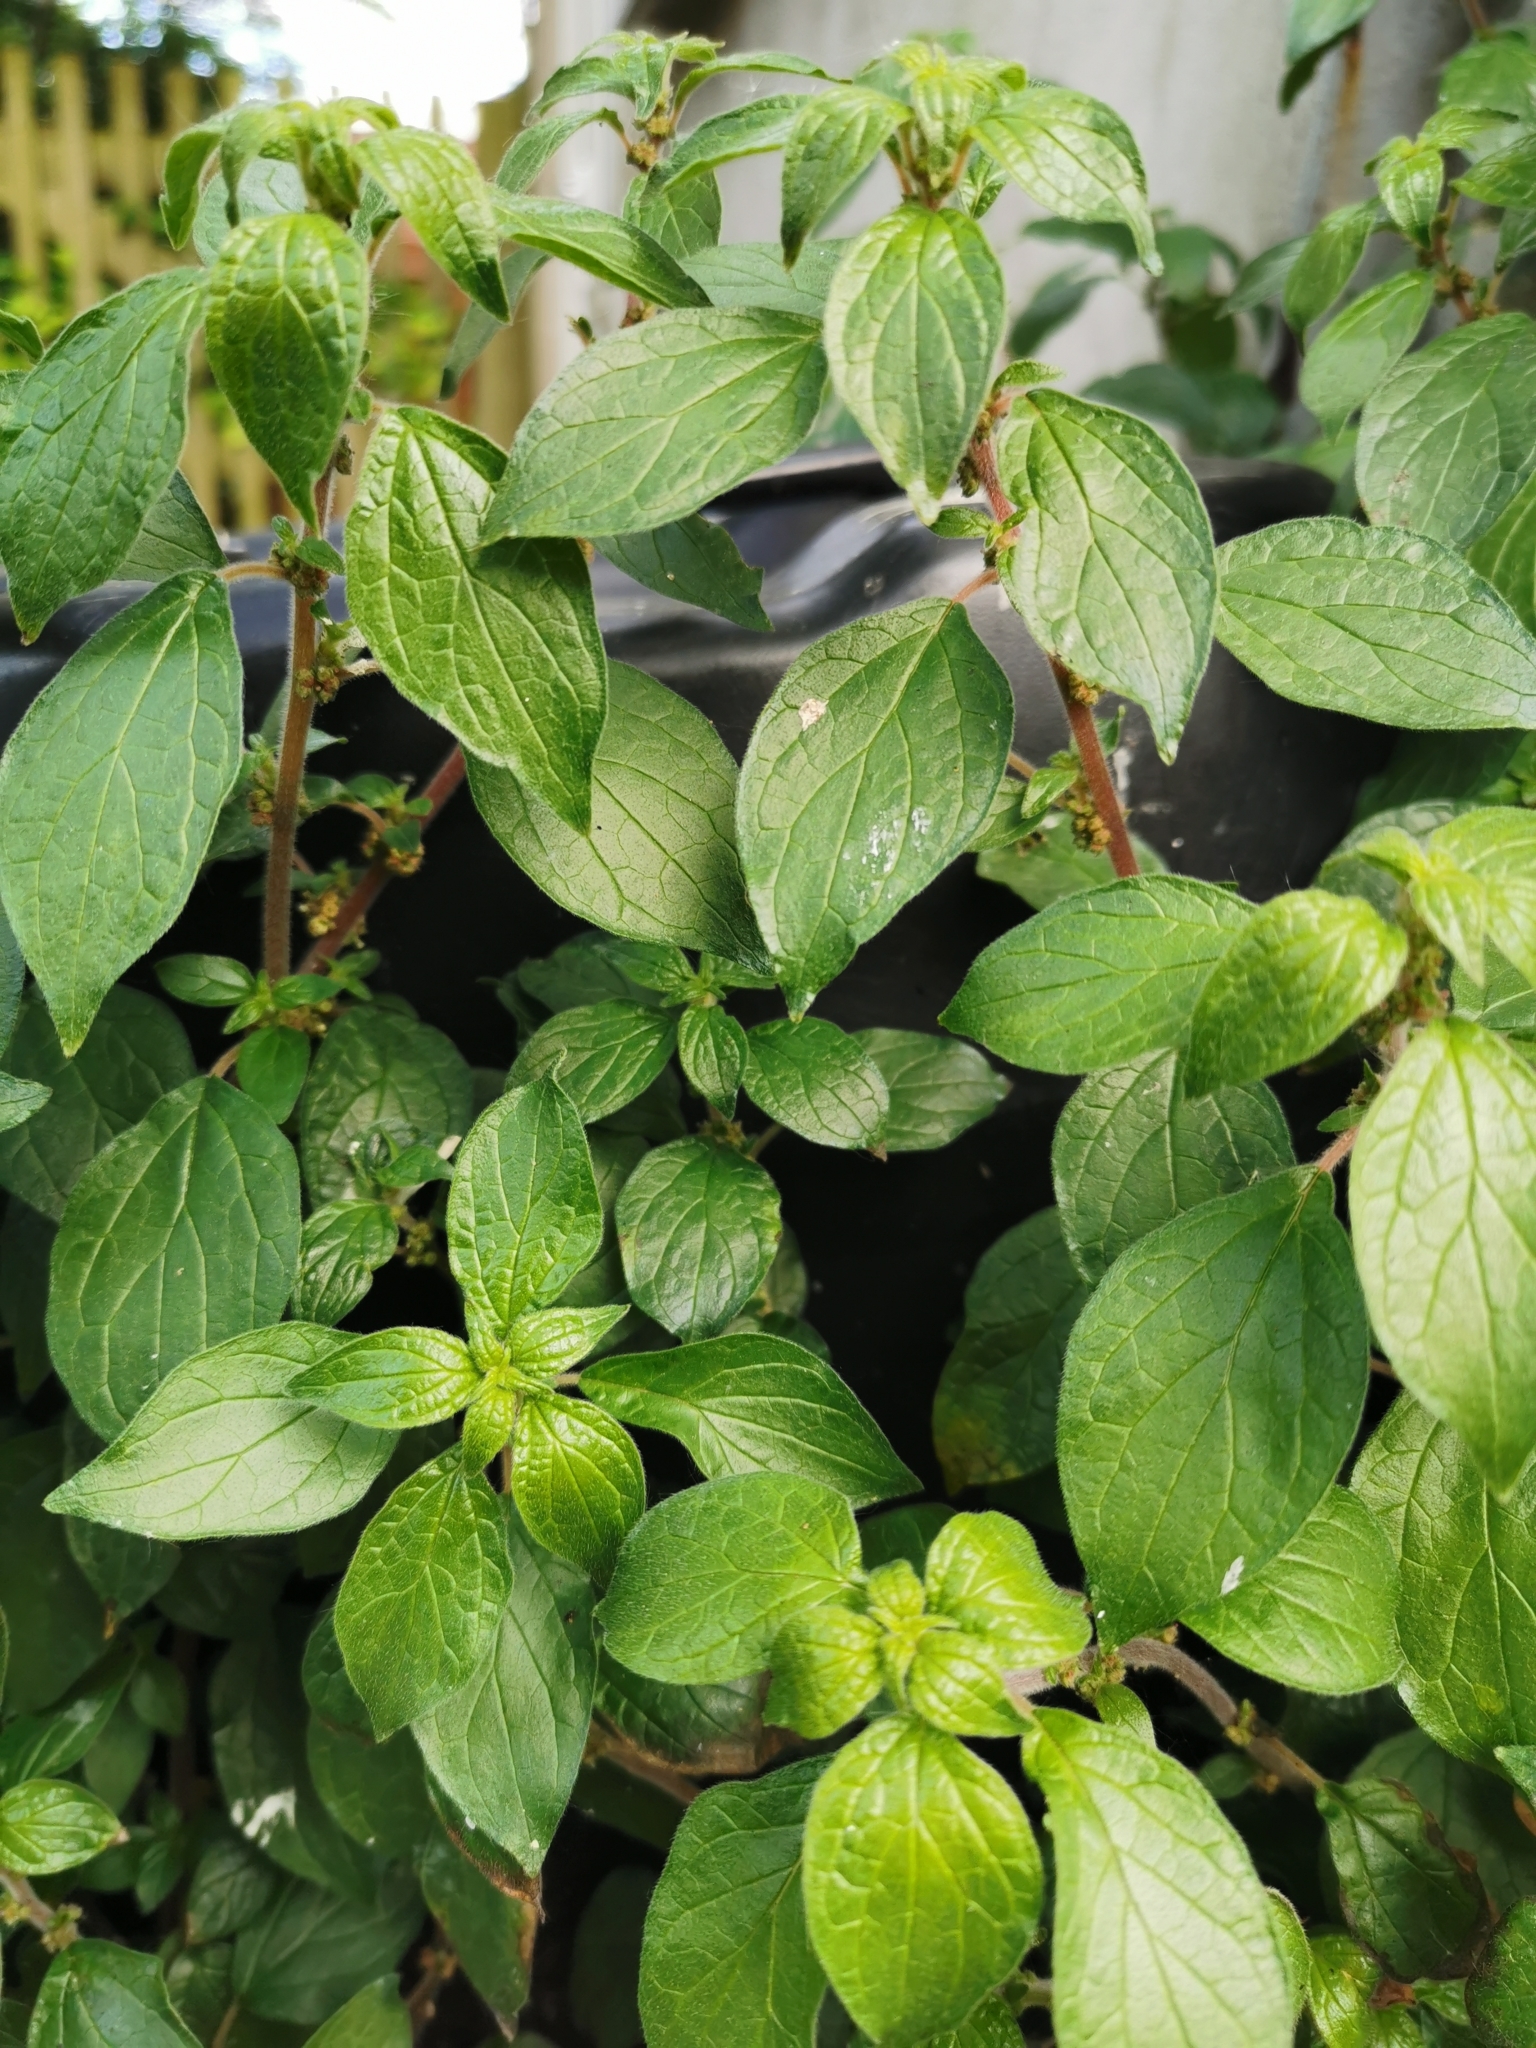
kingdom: Plantae
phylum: Tracheophyta
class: Magnoliopsida
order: Rosales
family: Urticaceae
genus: Parietaria
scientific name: Parietaria judaica
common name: Pellitory-of-the-wall
